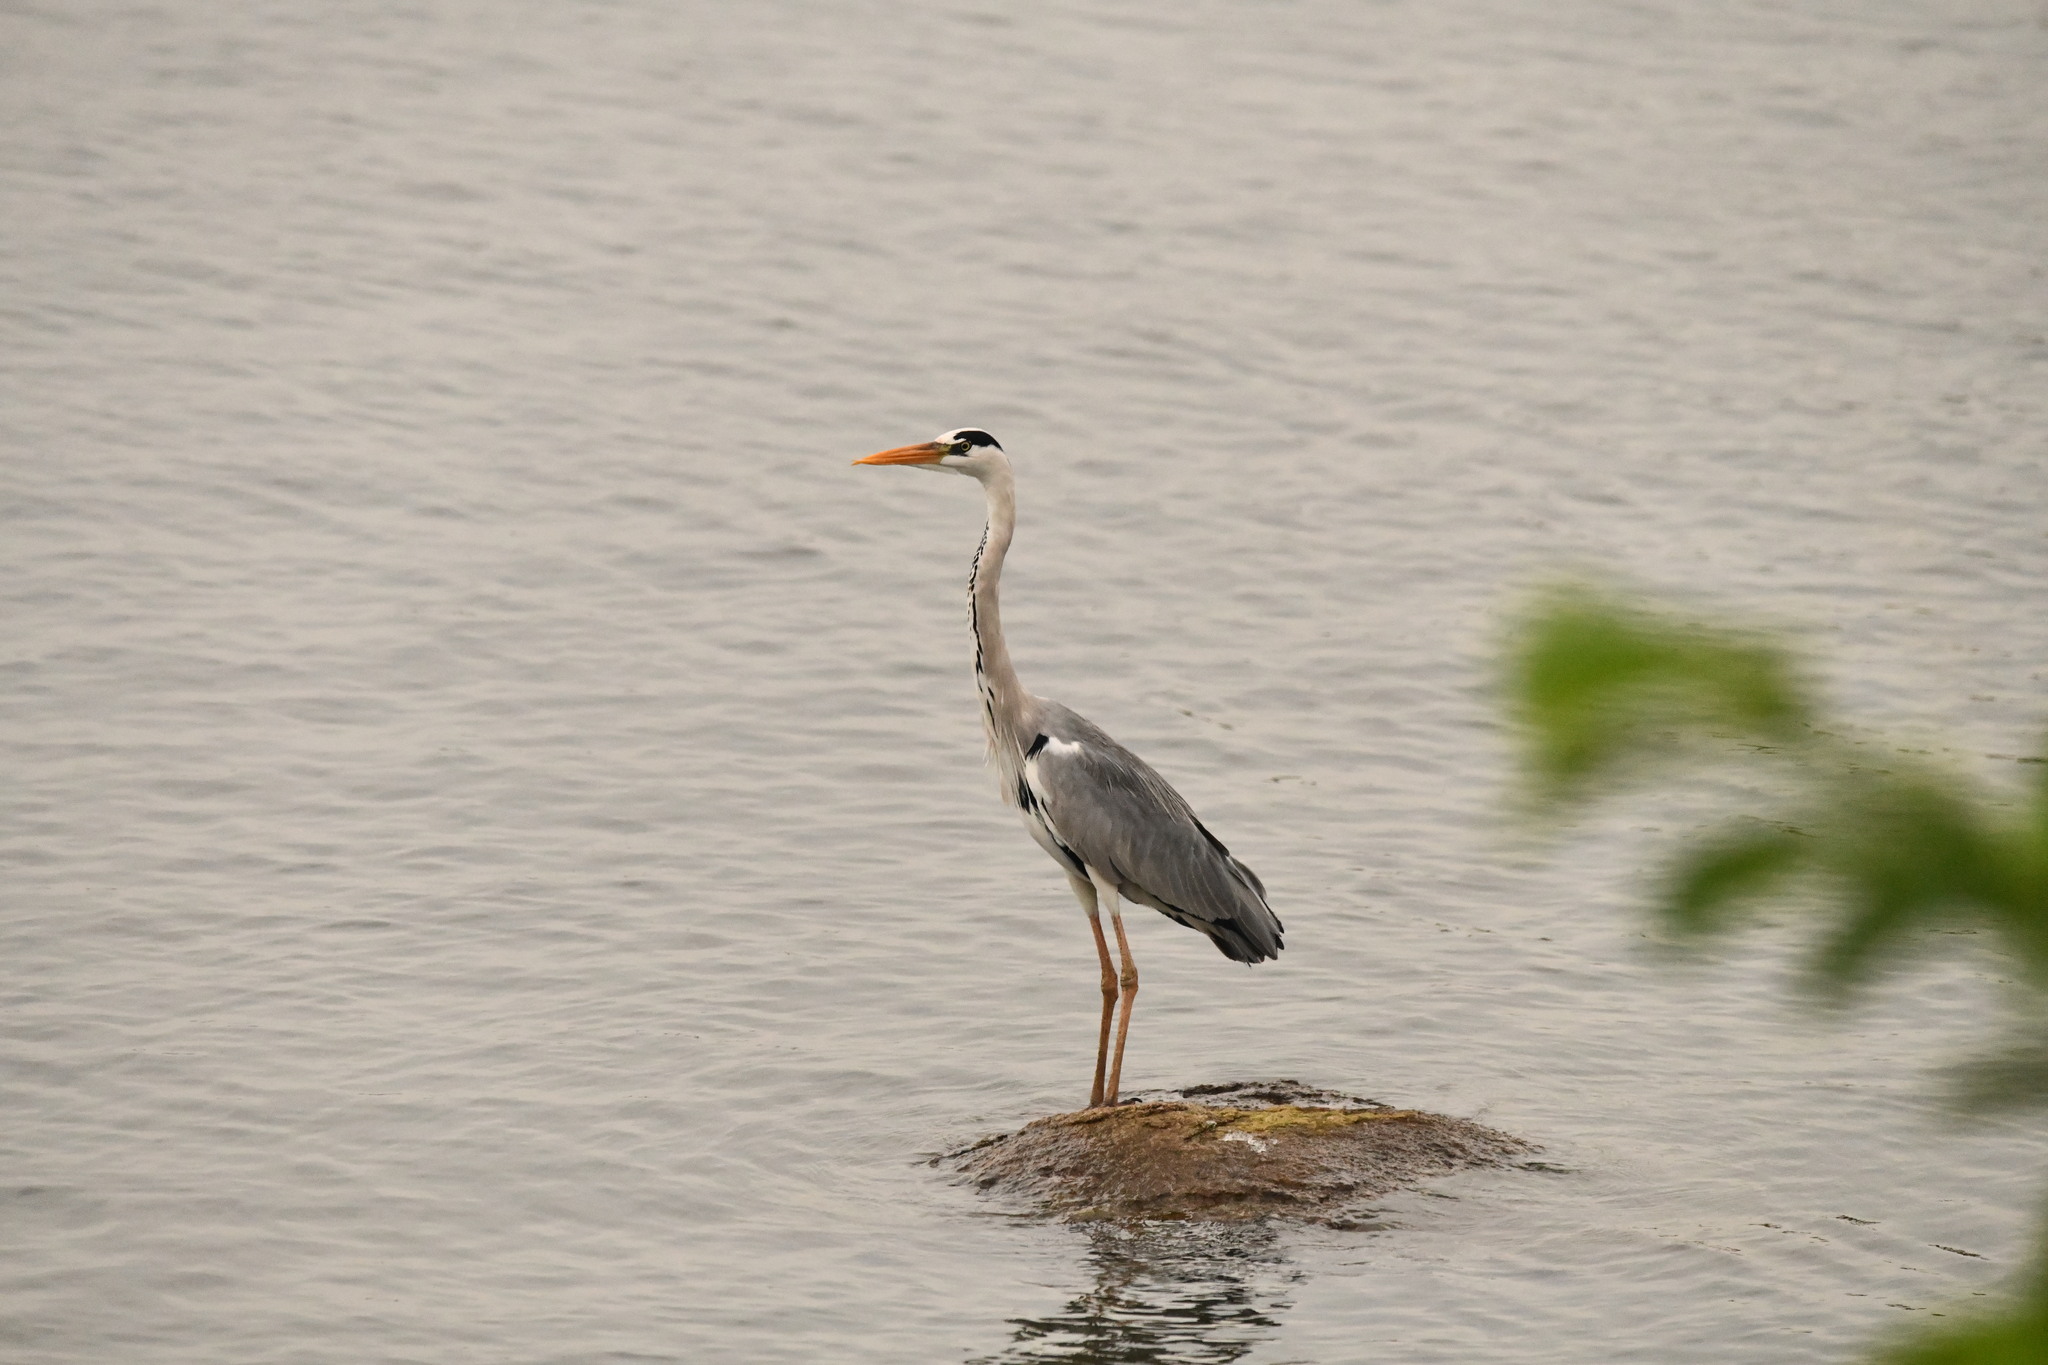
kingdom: Animalia
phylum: Chordata
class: Aves
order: Pelecaniformes
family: Ardeidae
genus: Ardea
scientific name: Ardea cinerea
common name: Grey heron
